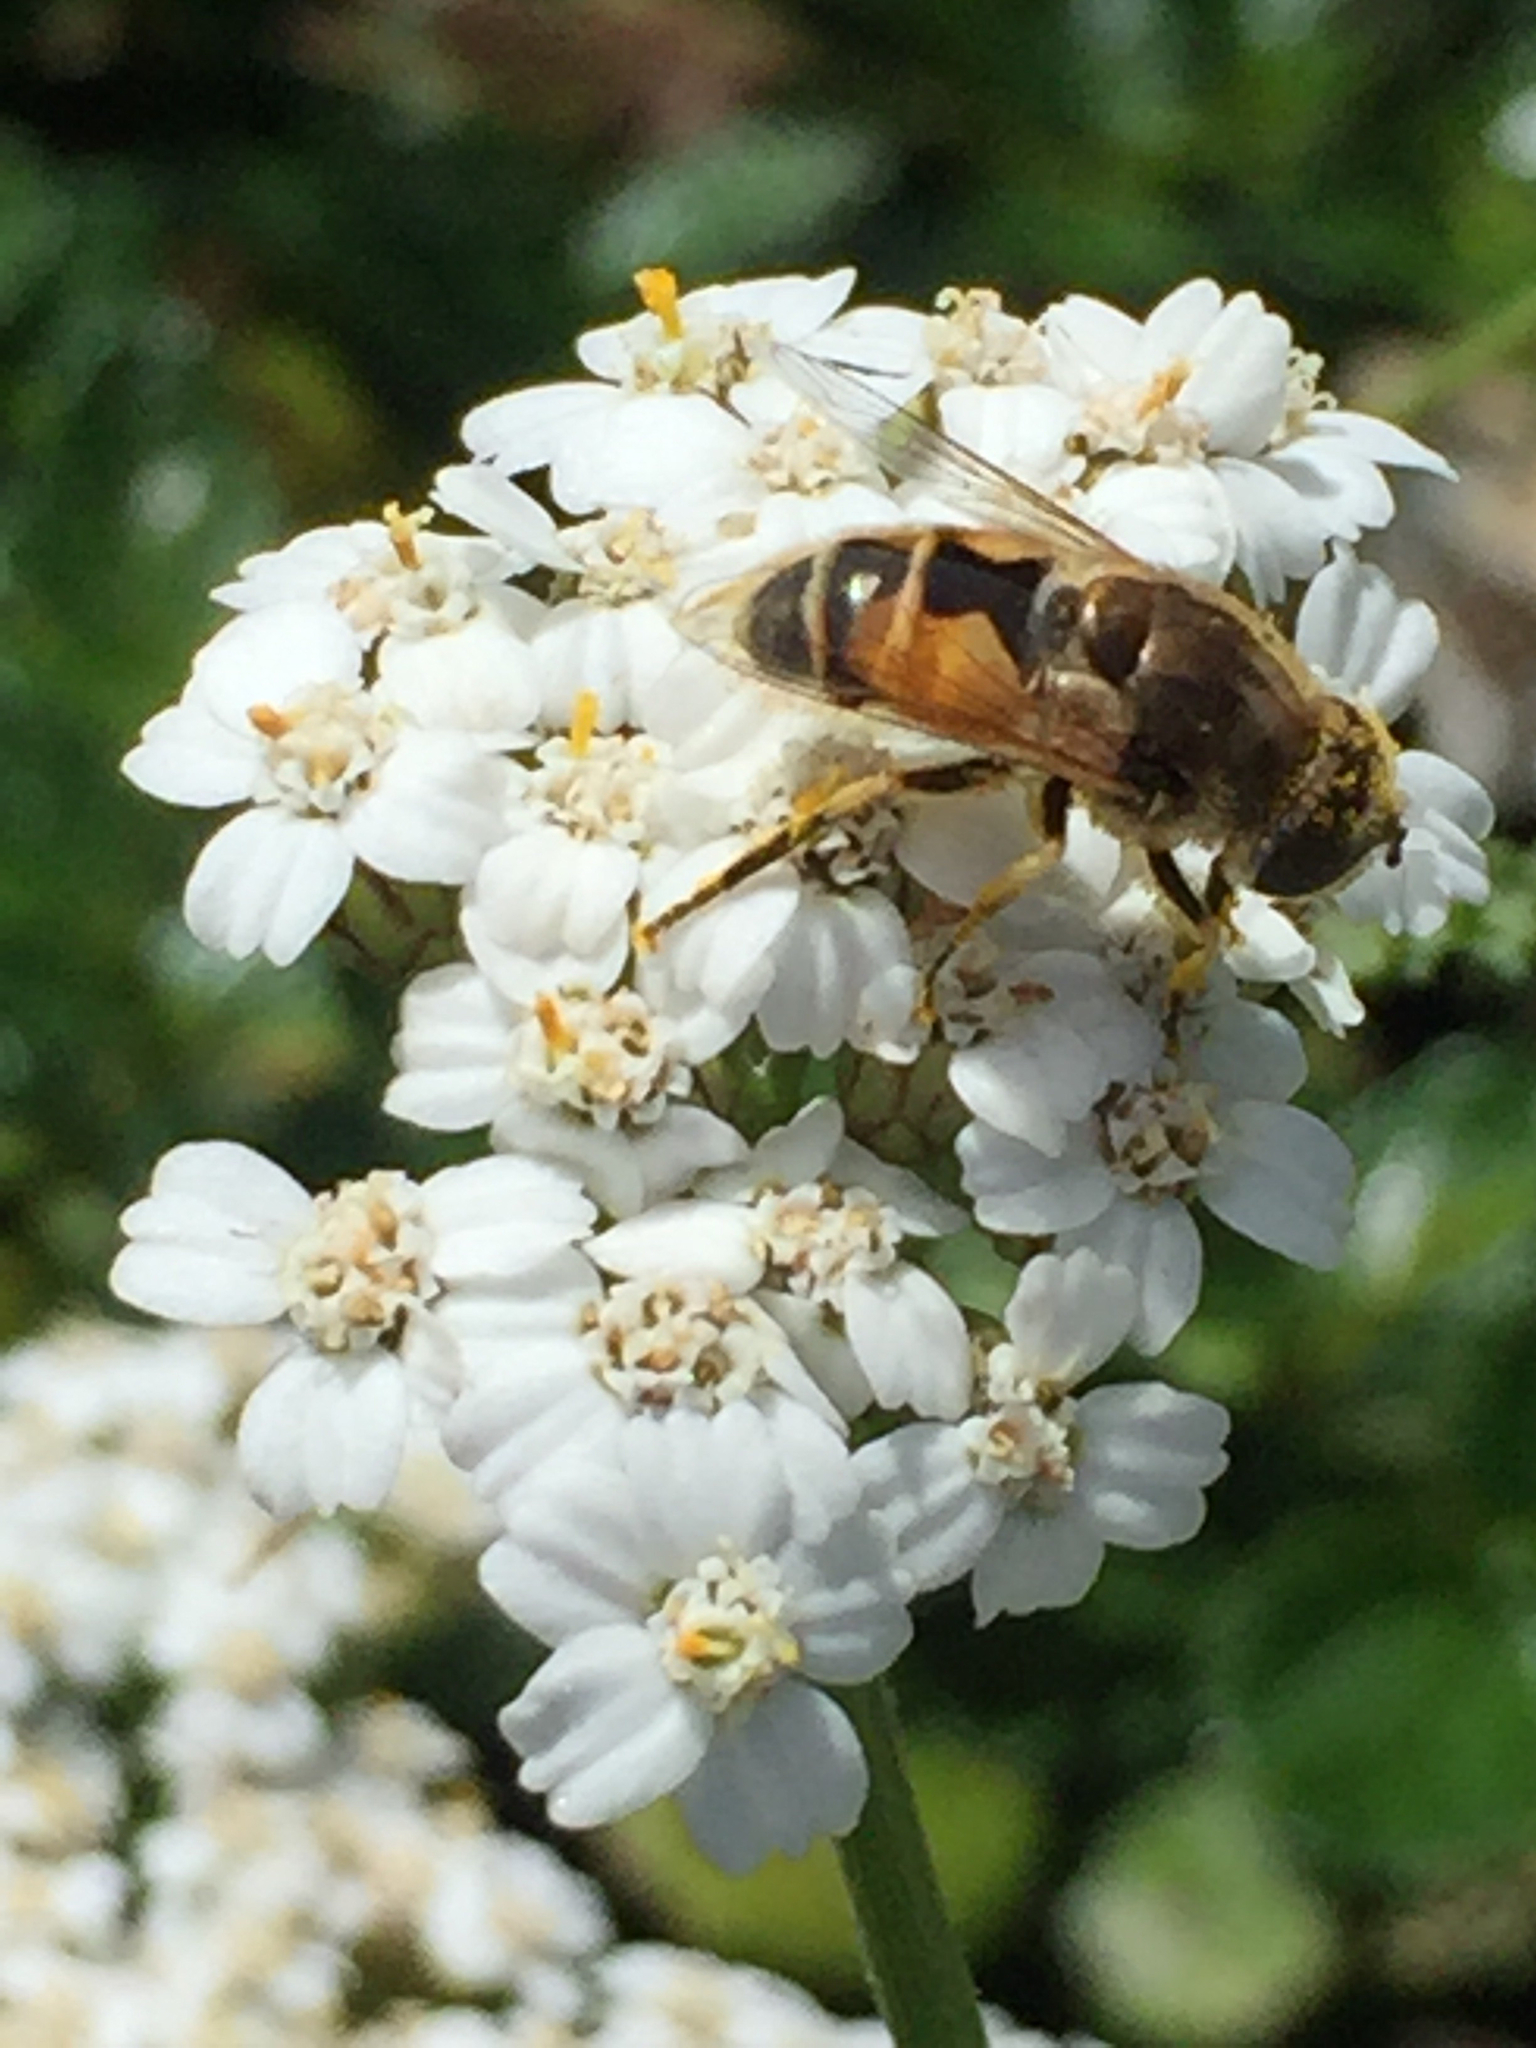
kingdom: Animalia
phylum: Arthropoda
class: Insecta
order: Diptera
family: Syrphidae
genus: Eristalis
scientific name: Eristalis arbustorum
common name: Hover fly
